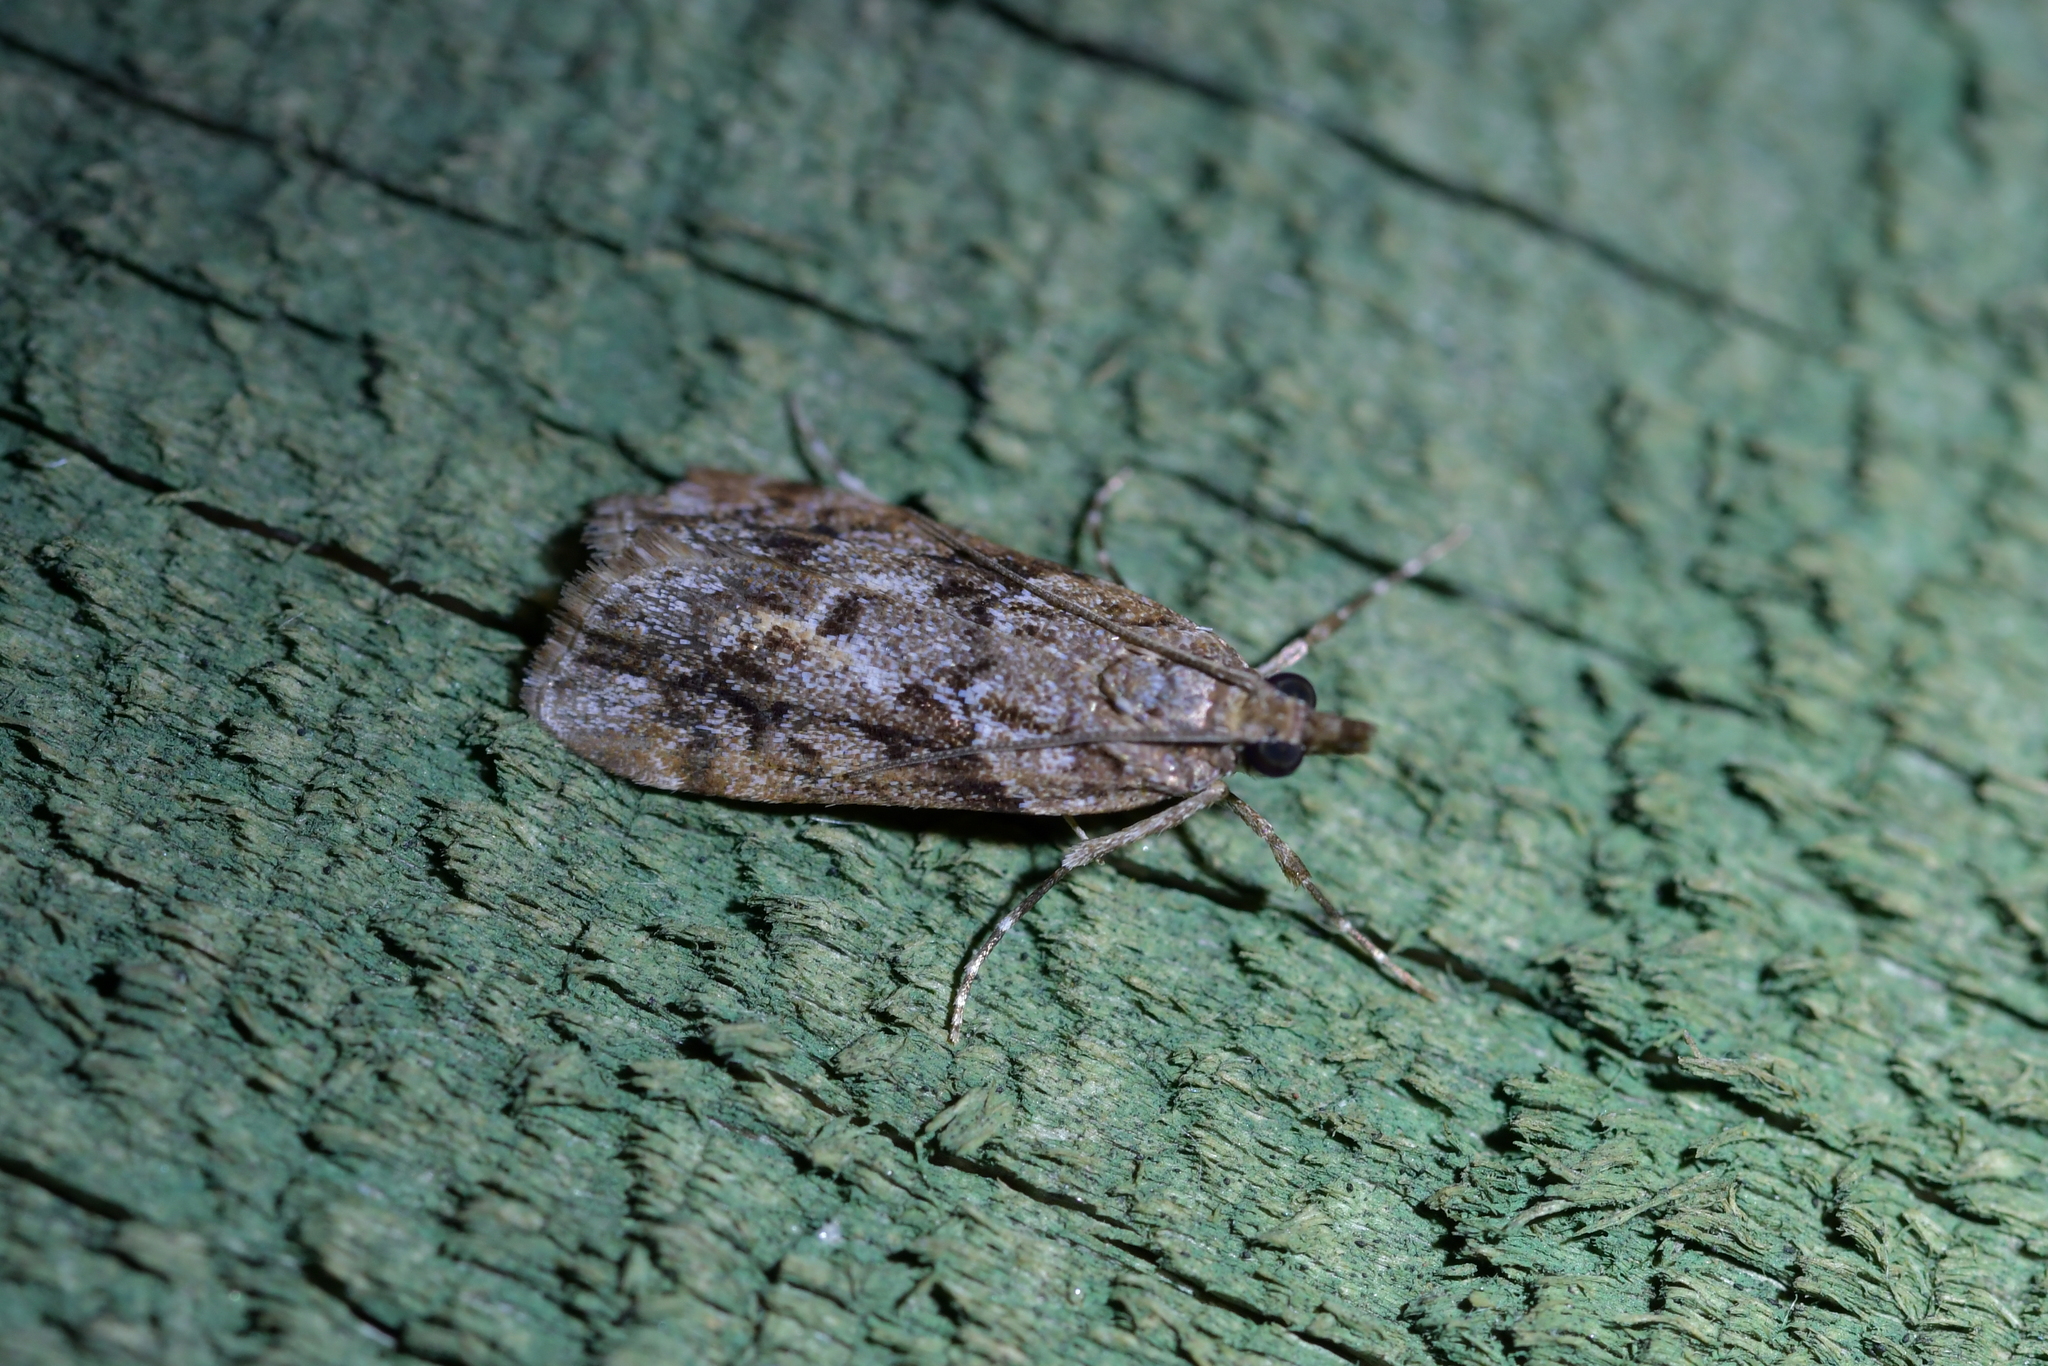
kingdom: Animalia
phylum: Arthropoda
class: Insecta
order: Lepidoptera
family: Crambidae
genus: Eudonia
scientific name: Eudonia submarginalis
